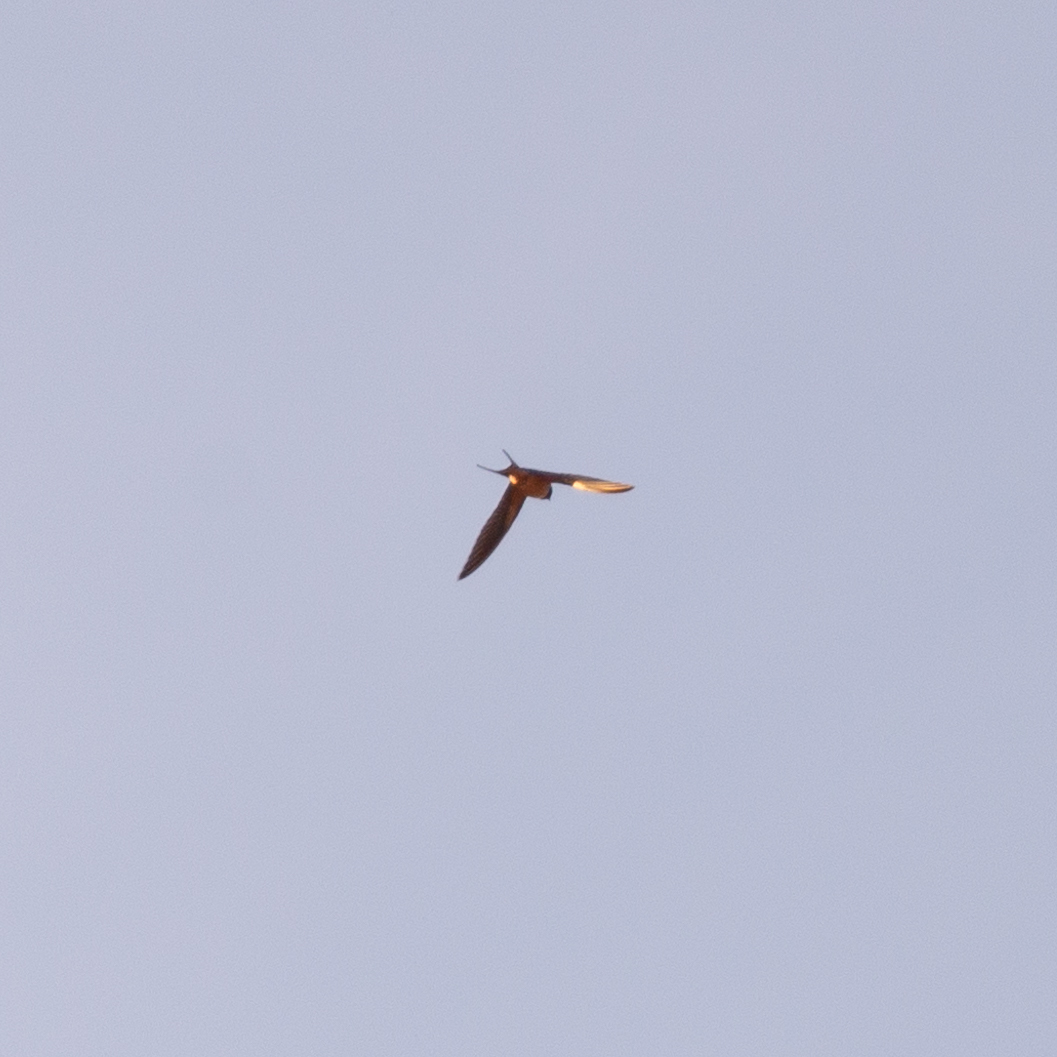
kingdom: Animalia
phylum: Chordata
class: Aves
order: Passeriformes
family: Hirundinidae
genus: Hirundo
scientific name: Hirundo rustica
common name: Barn swallow
